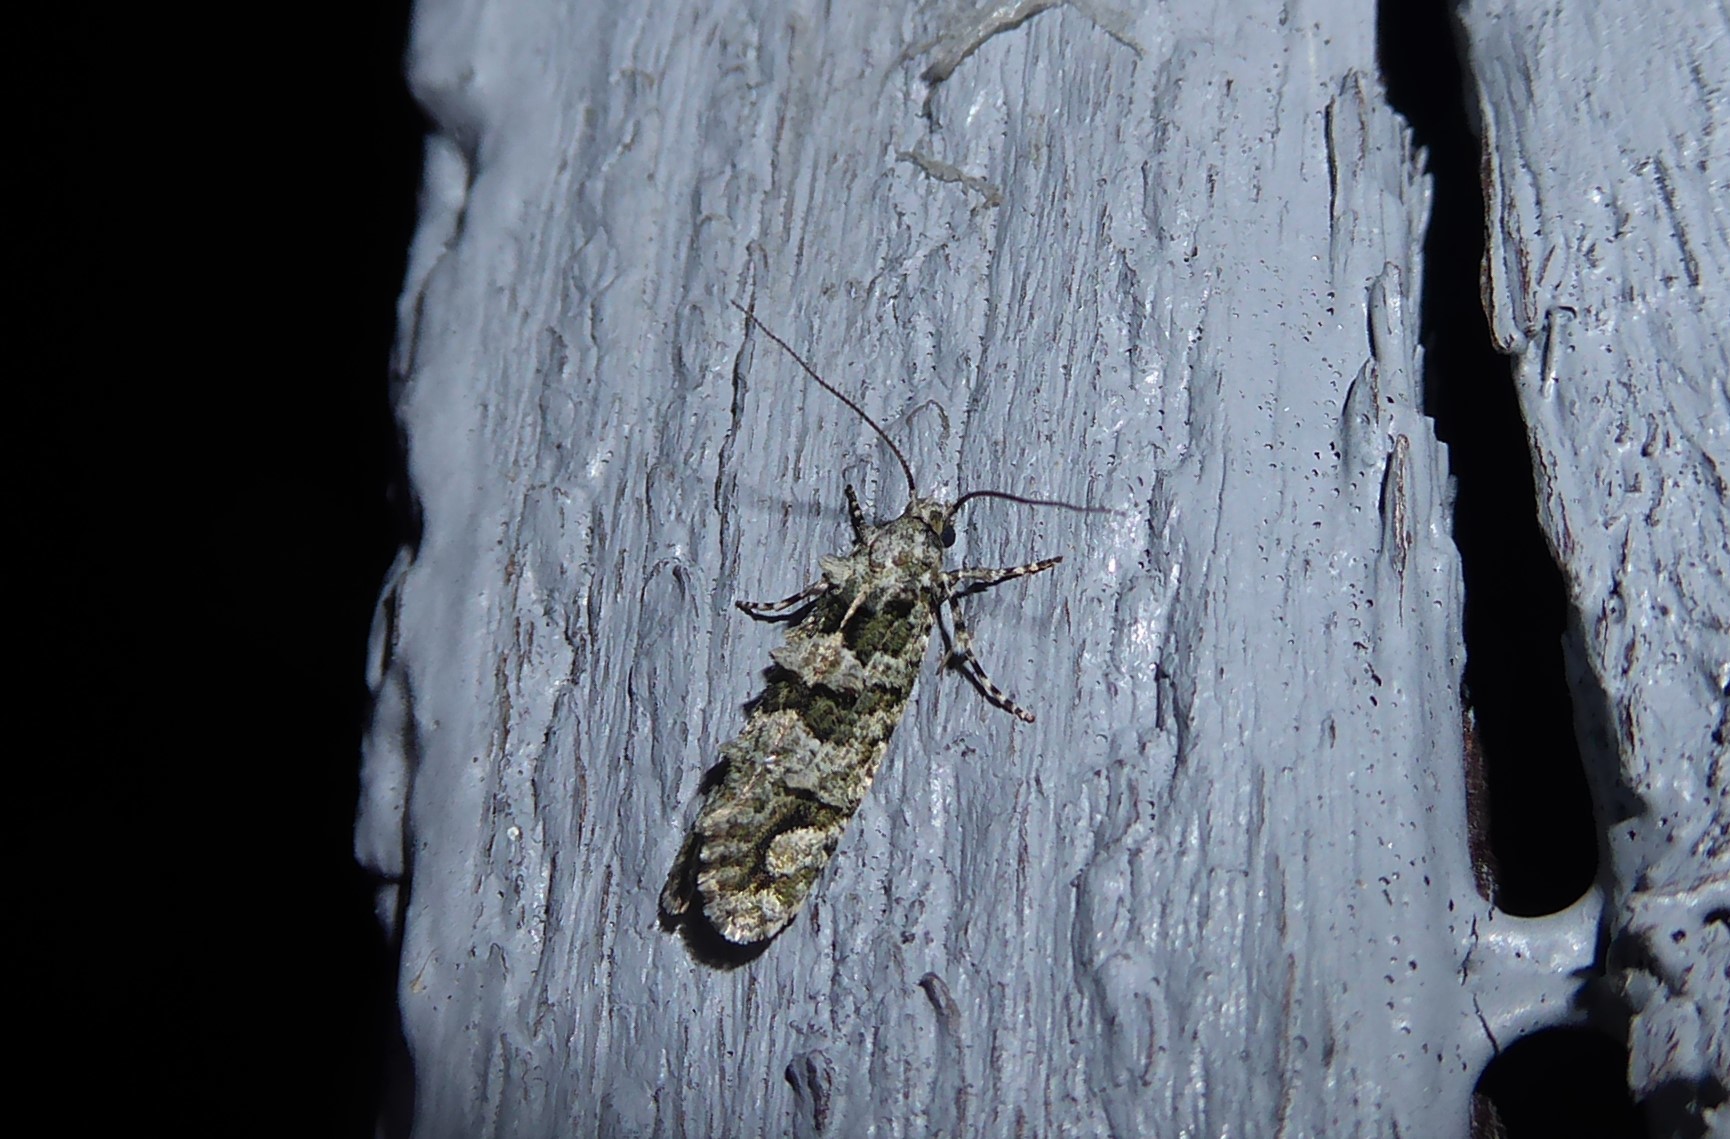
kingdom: Animalia
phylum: Arthropoda
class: Insecta
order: Lepidoptera
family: Tineidae
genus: Lysiphragma
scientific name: Lysiphragma howesii
